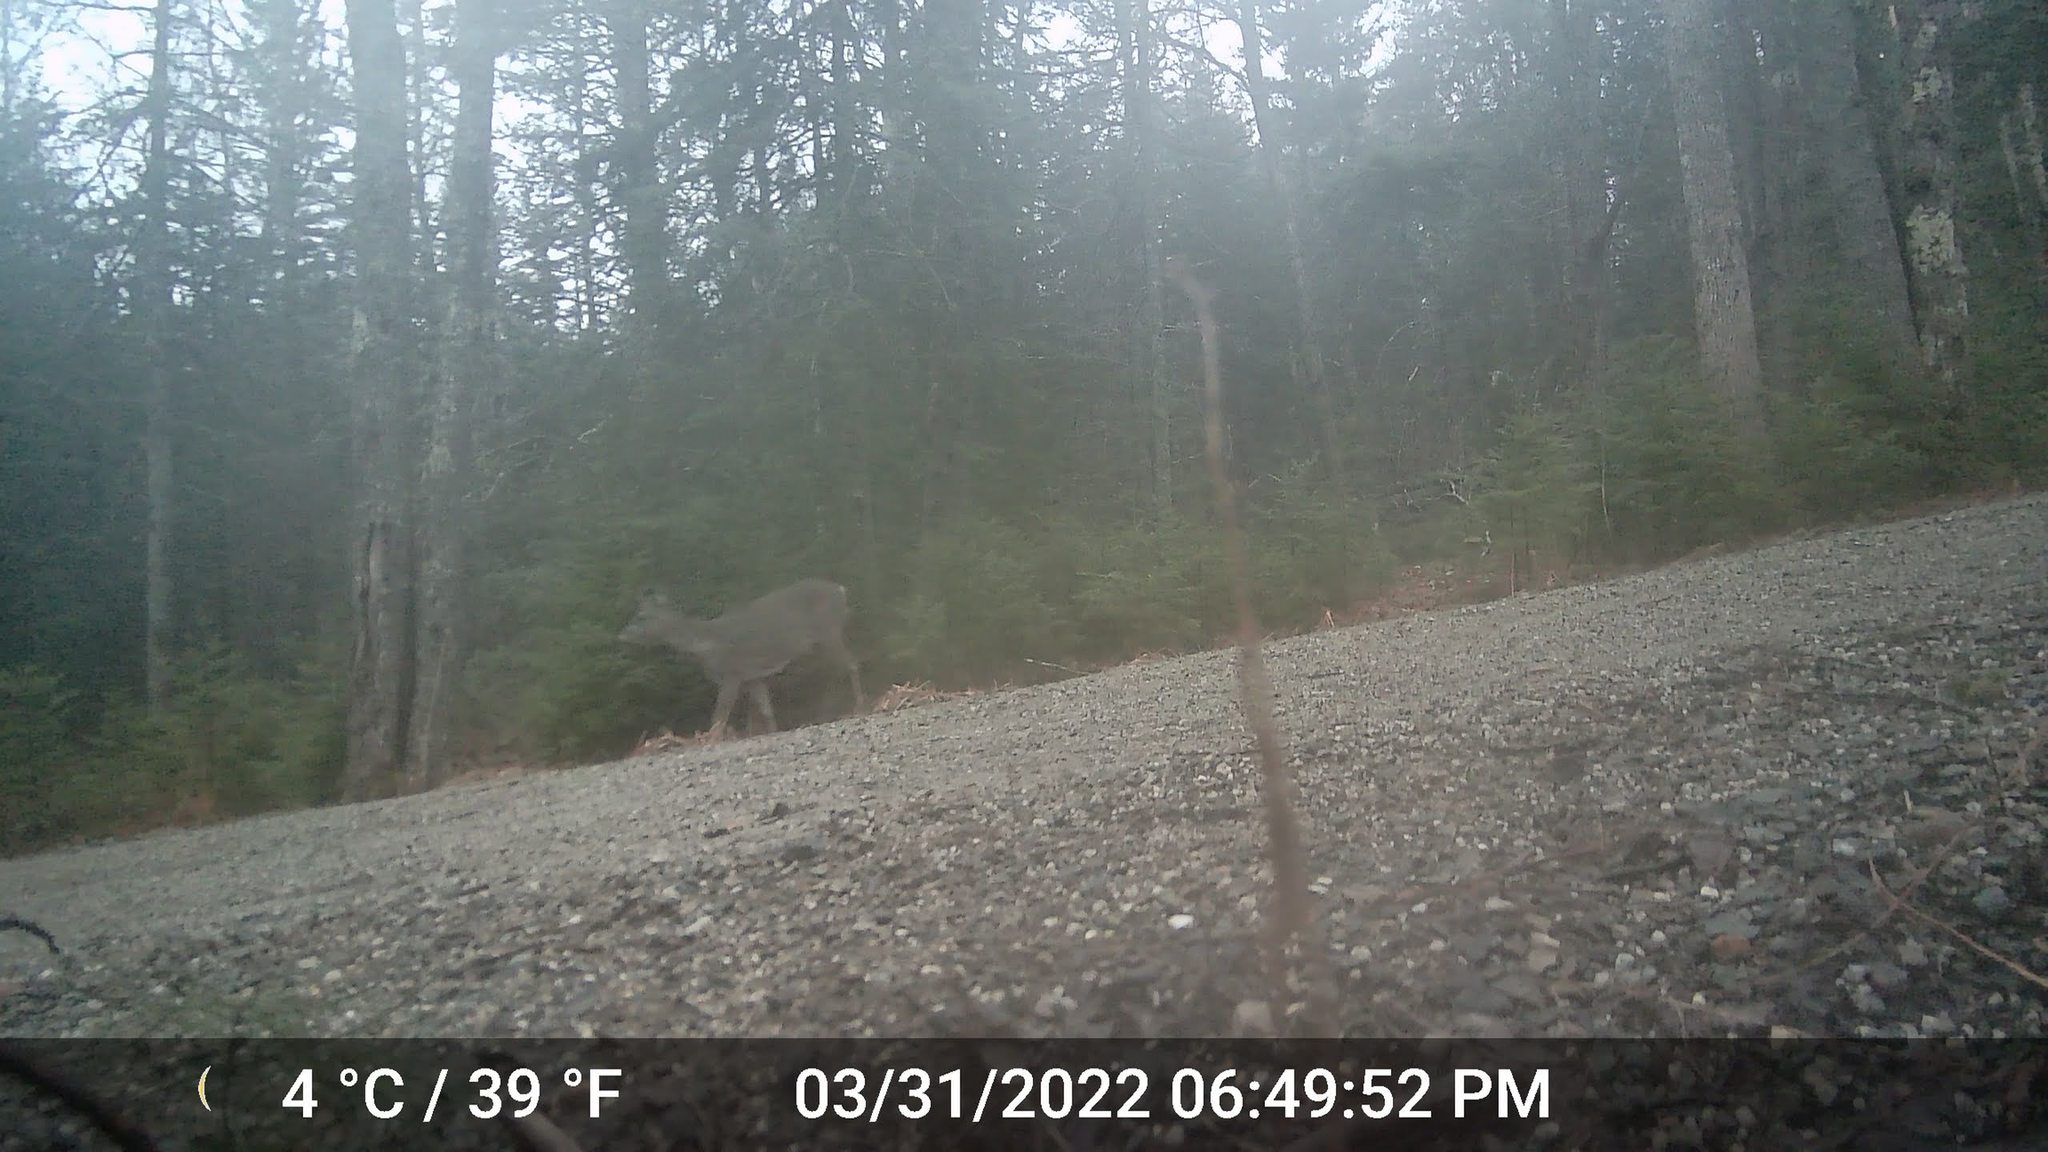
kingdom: Animalia
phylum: Chordata
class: Mammalia
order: Artiodactyla
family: Cervidae
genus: Odocoileus
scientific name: Odocoileus virginianus
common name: White-tailed deer
